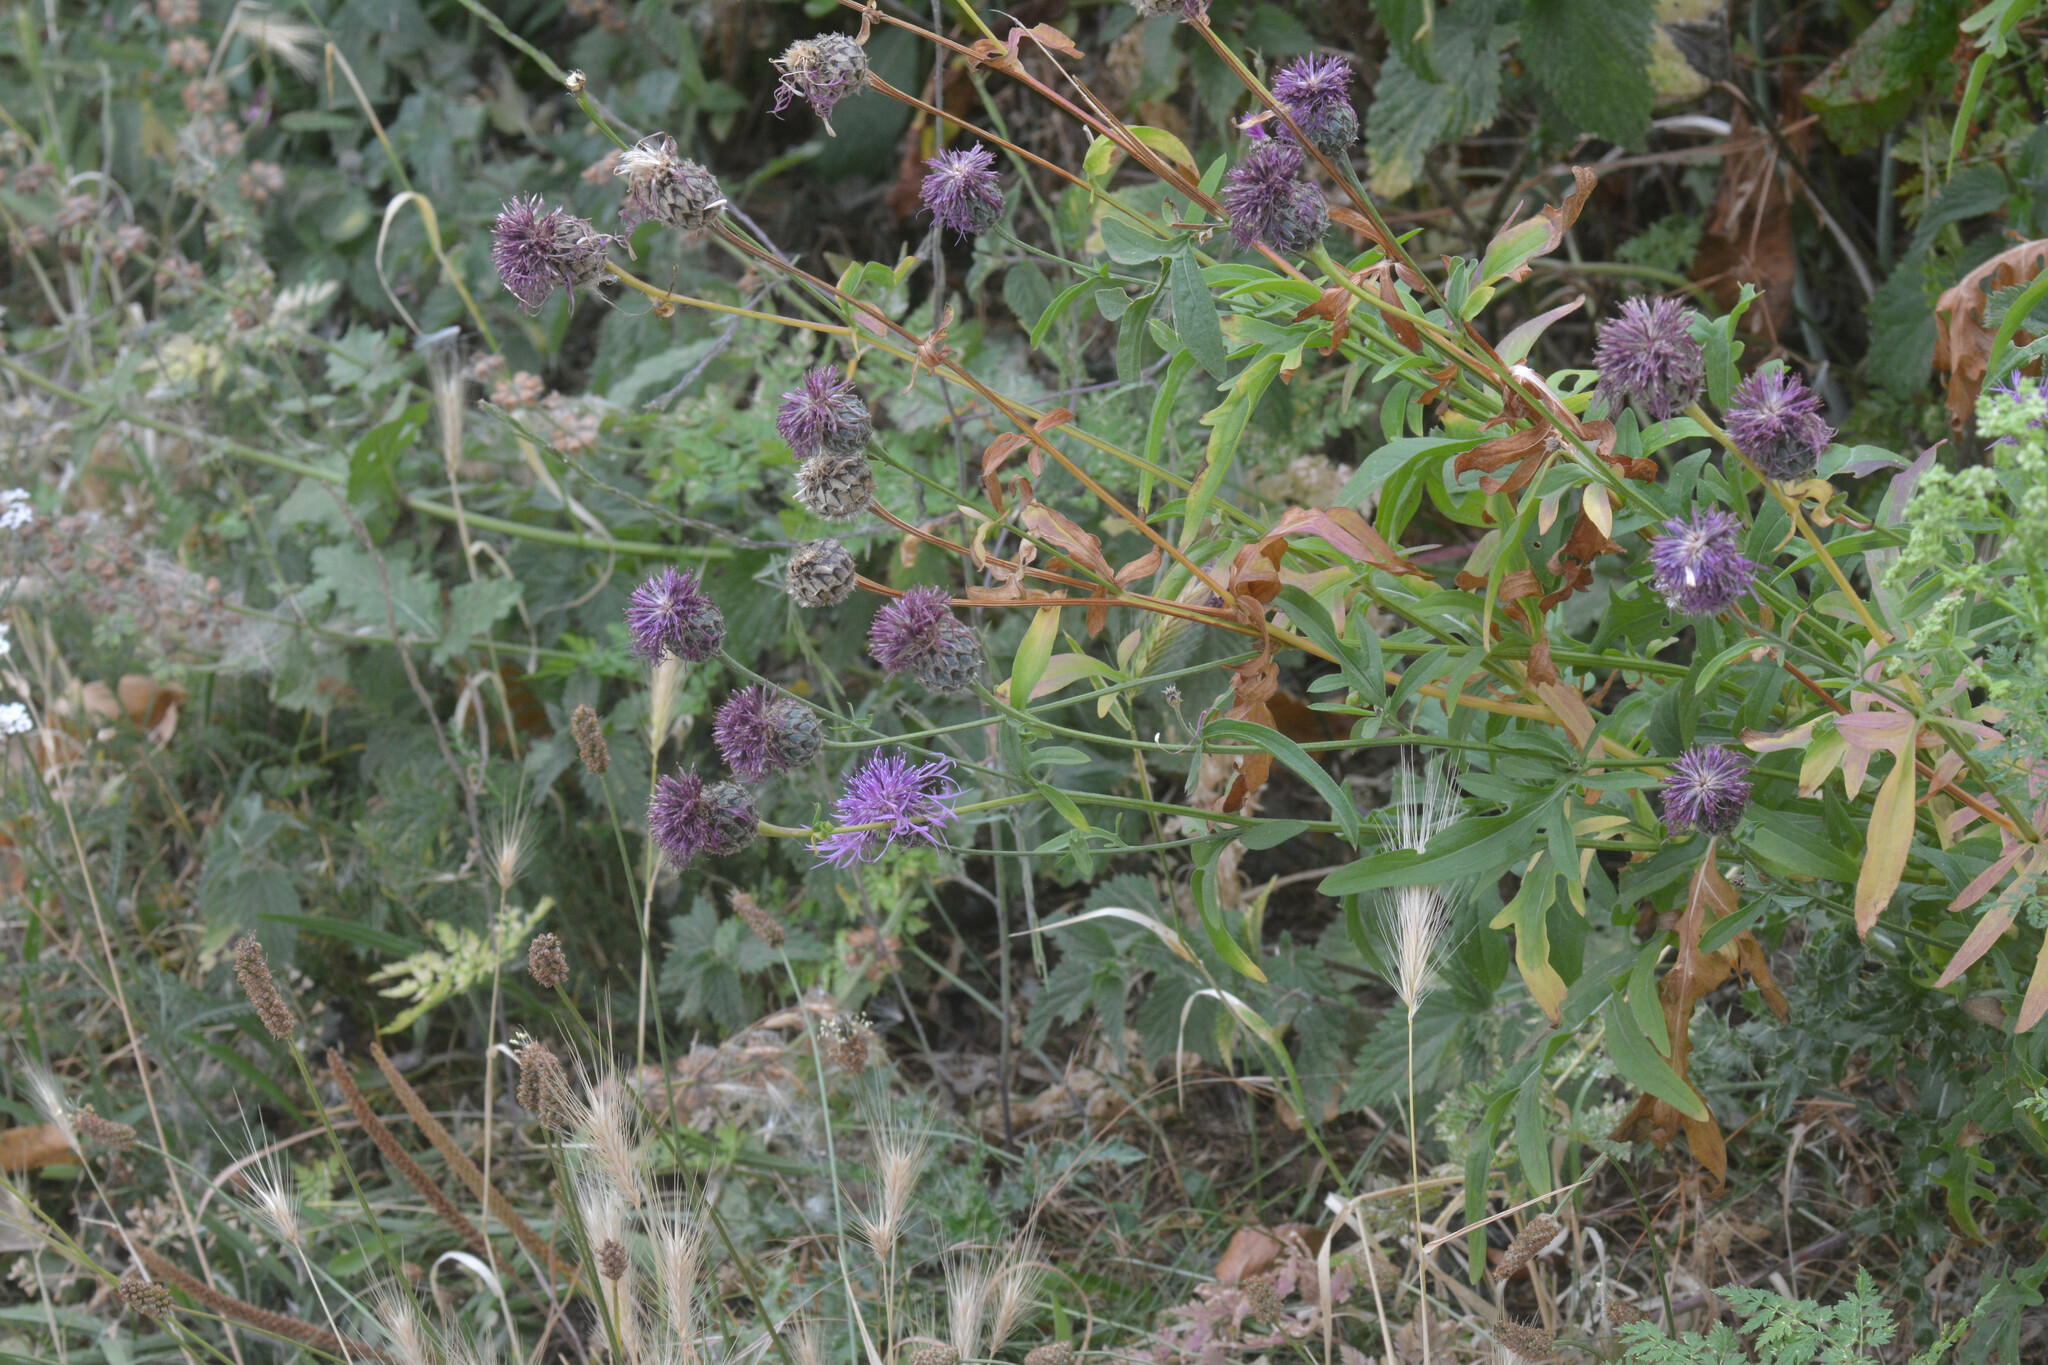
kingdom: Plantae
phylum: Tracheophyta
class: Magnoliopsida
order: Asterales
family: Asteraceae
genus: Centaurea
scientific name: Centaurea scabiosa
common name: Greater knapweed
